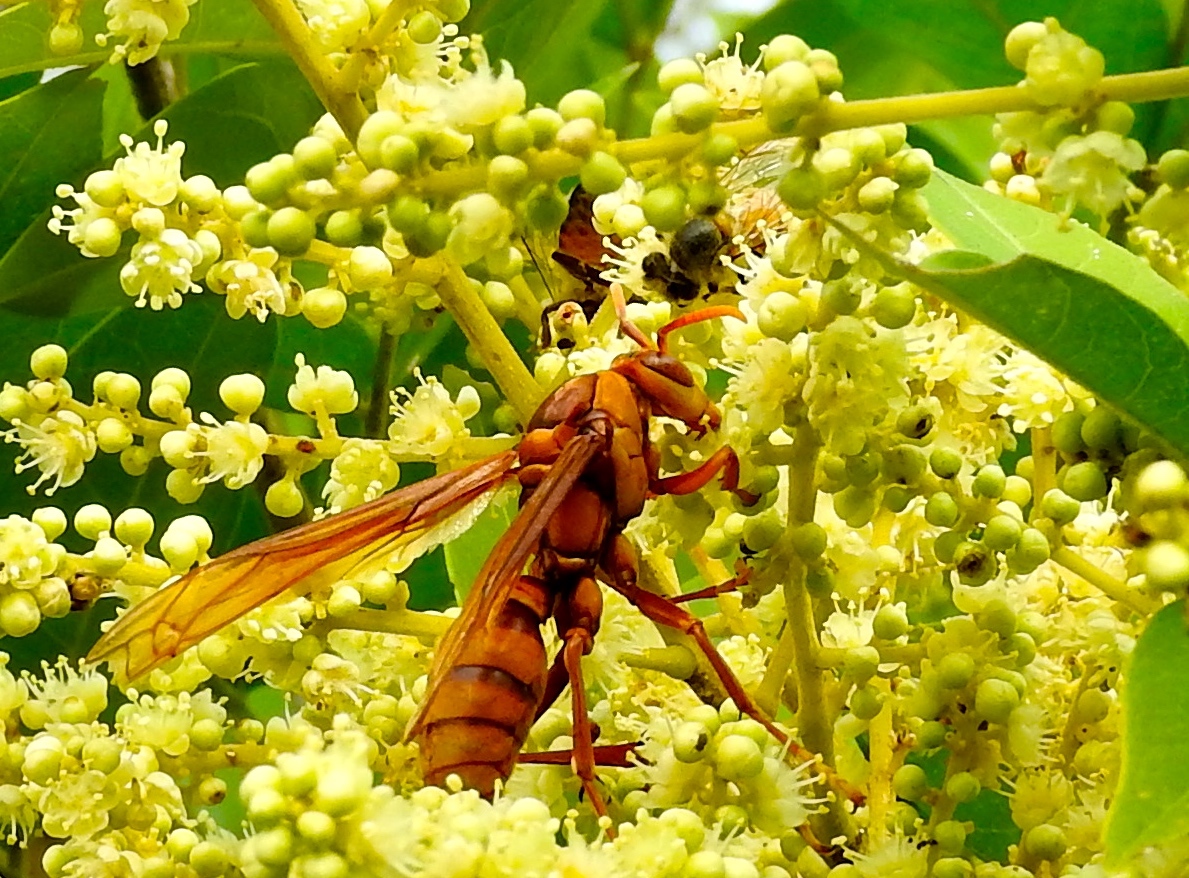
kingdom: Animalia
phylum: Arthropoda
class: Insecta
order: Hymenoptera
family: Eumenidae
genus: Polistes
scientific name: Polistes carnifex
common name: Paper wasp
